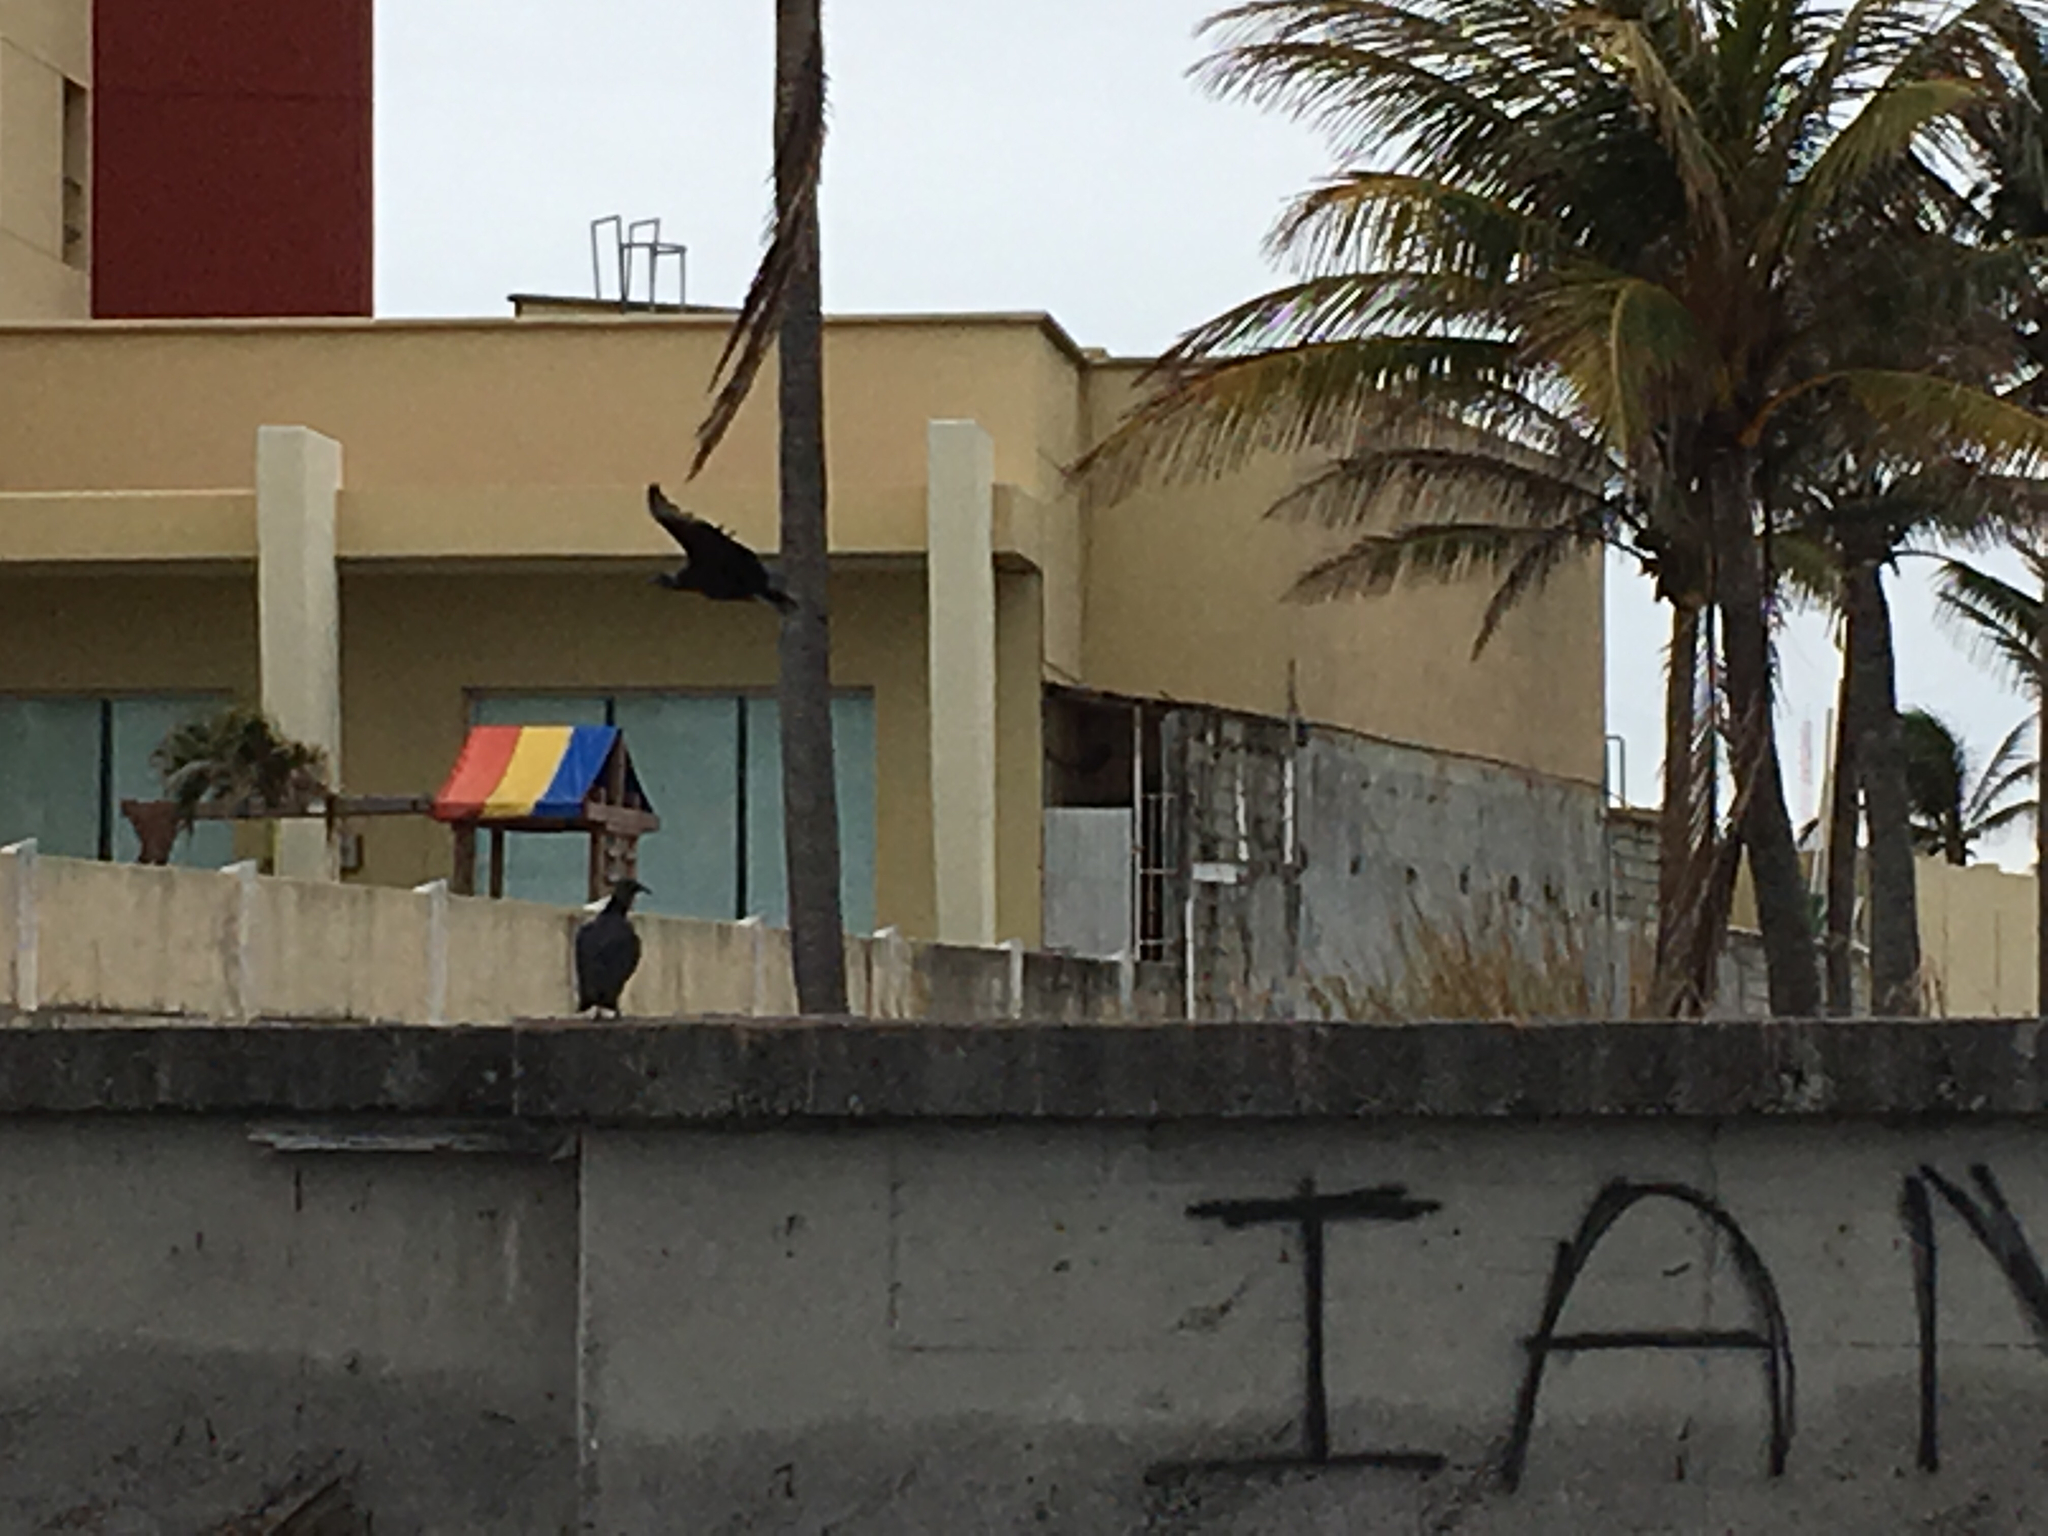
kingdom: Animalia
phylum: Chordata
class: Aves
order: Accipitriformes
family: Cathartidae
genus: Coragyps
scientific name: Coragyps atratus
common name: Black vulture
